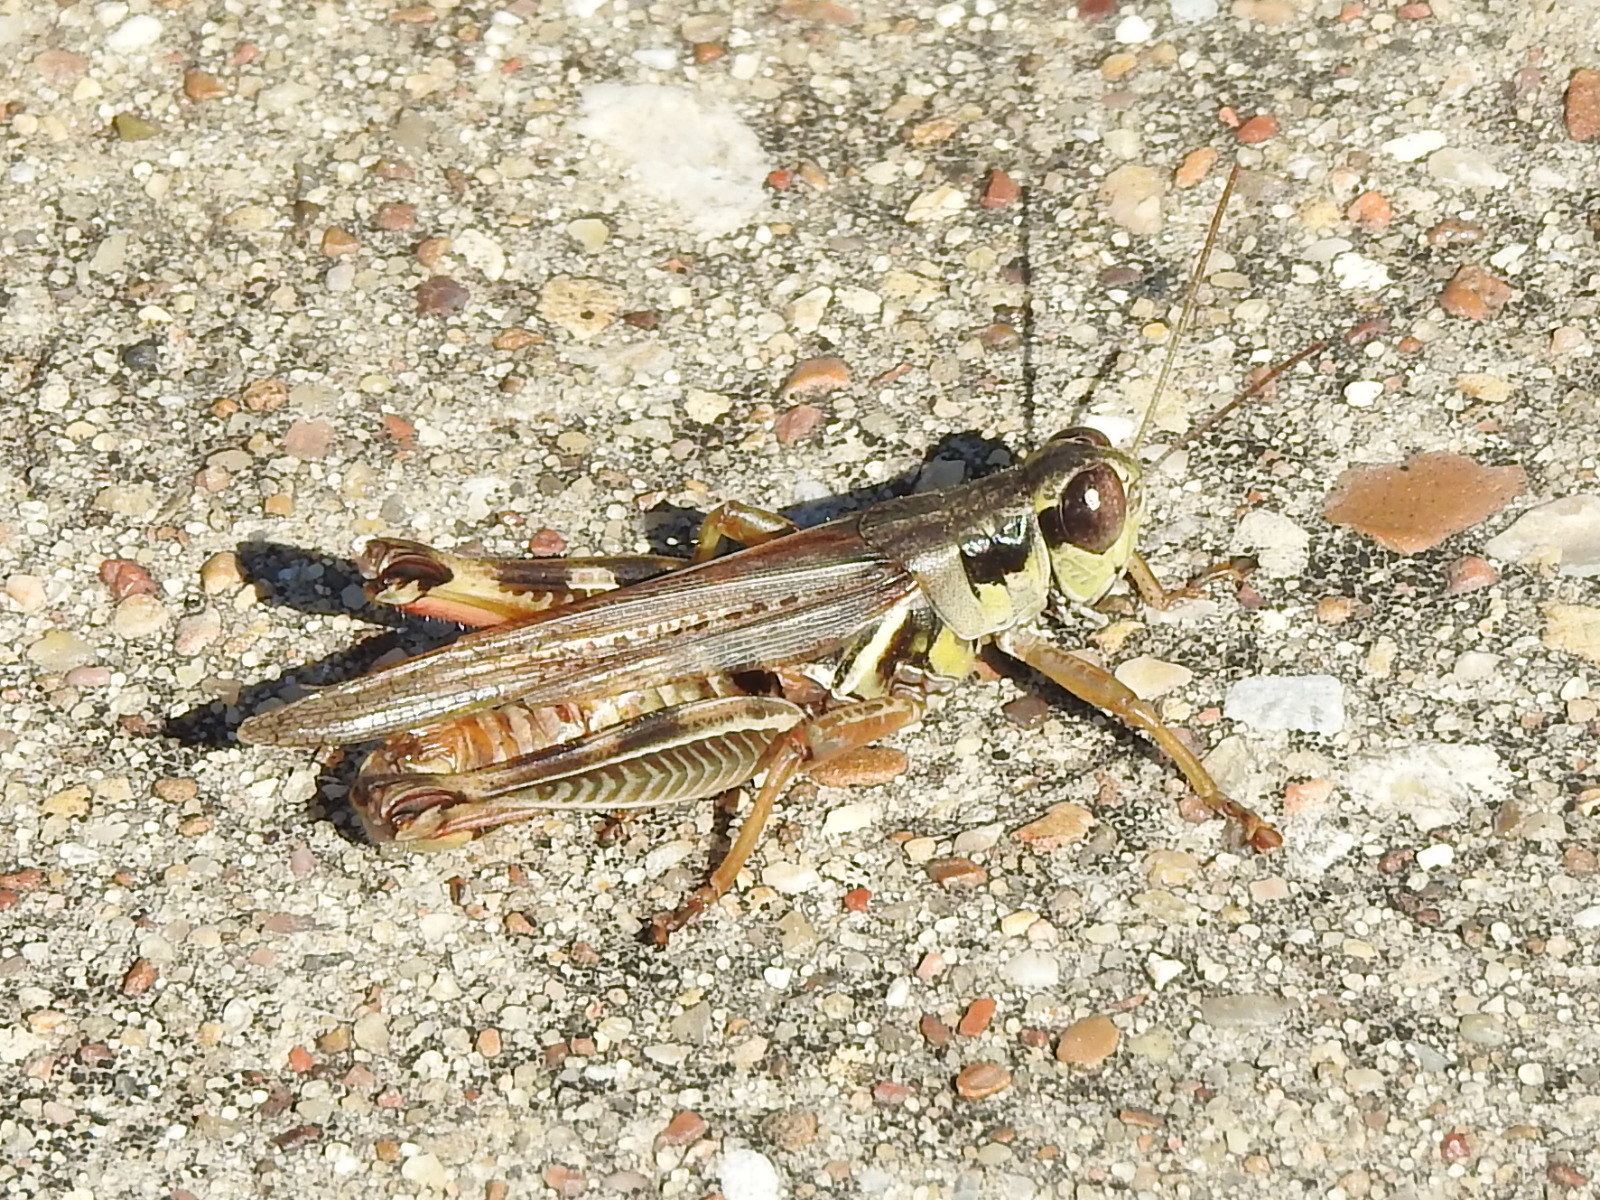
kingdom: Animalia
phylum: Arthropoda
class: Insecta
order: Orthoptera
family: Acrididae
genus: Melanoplus
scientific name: Melanoplus femurrubrum
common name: Red-legged grasshopper
